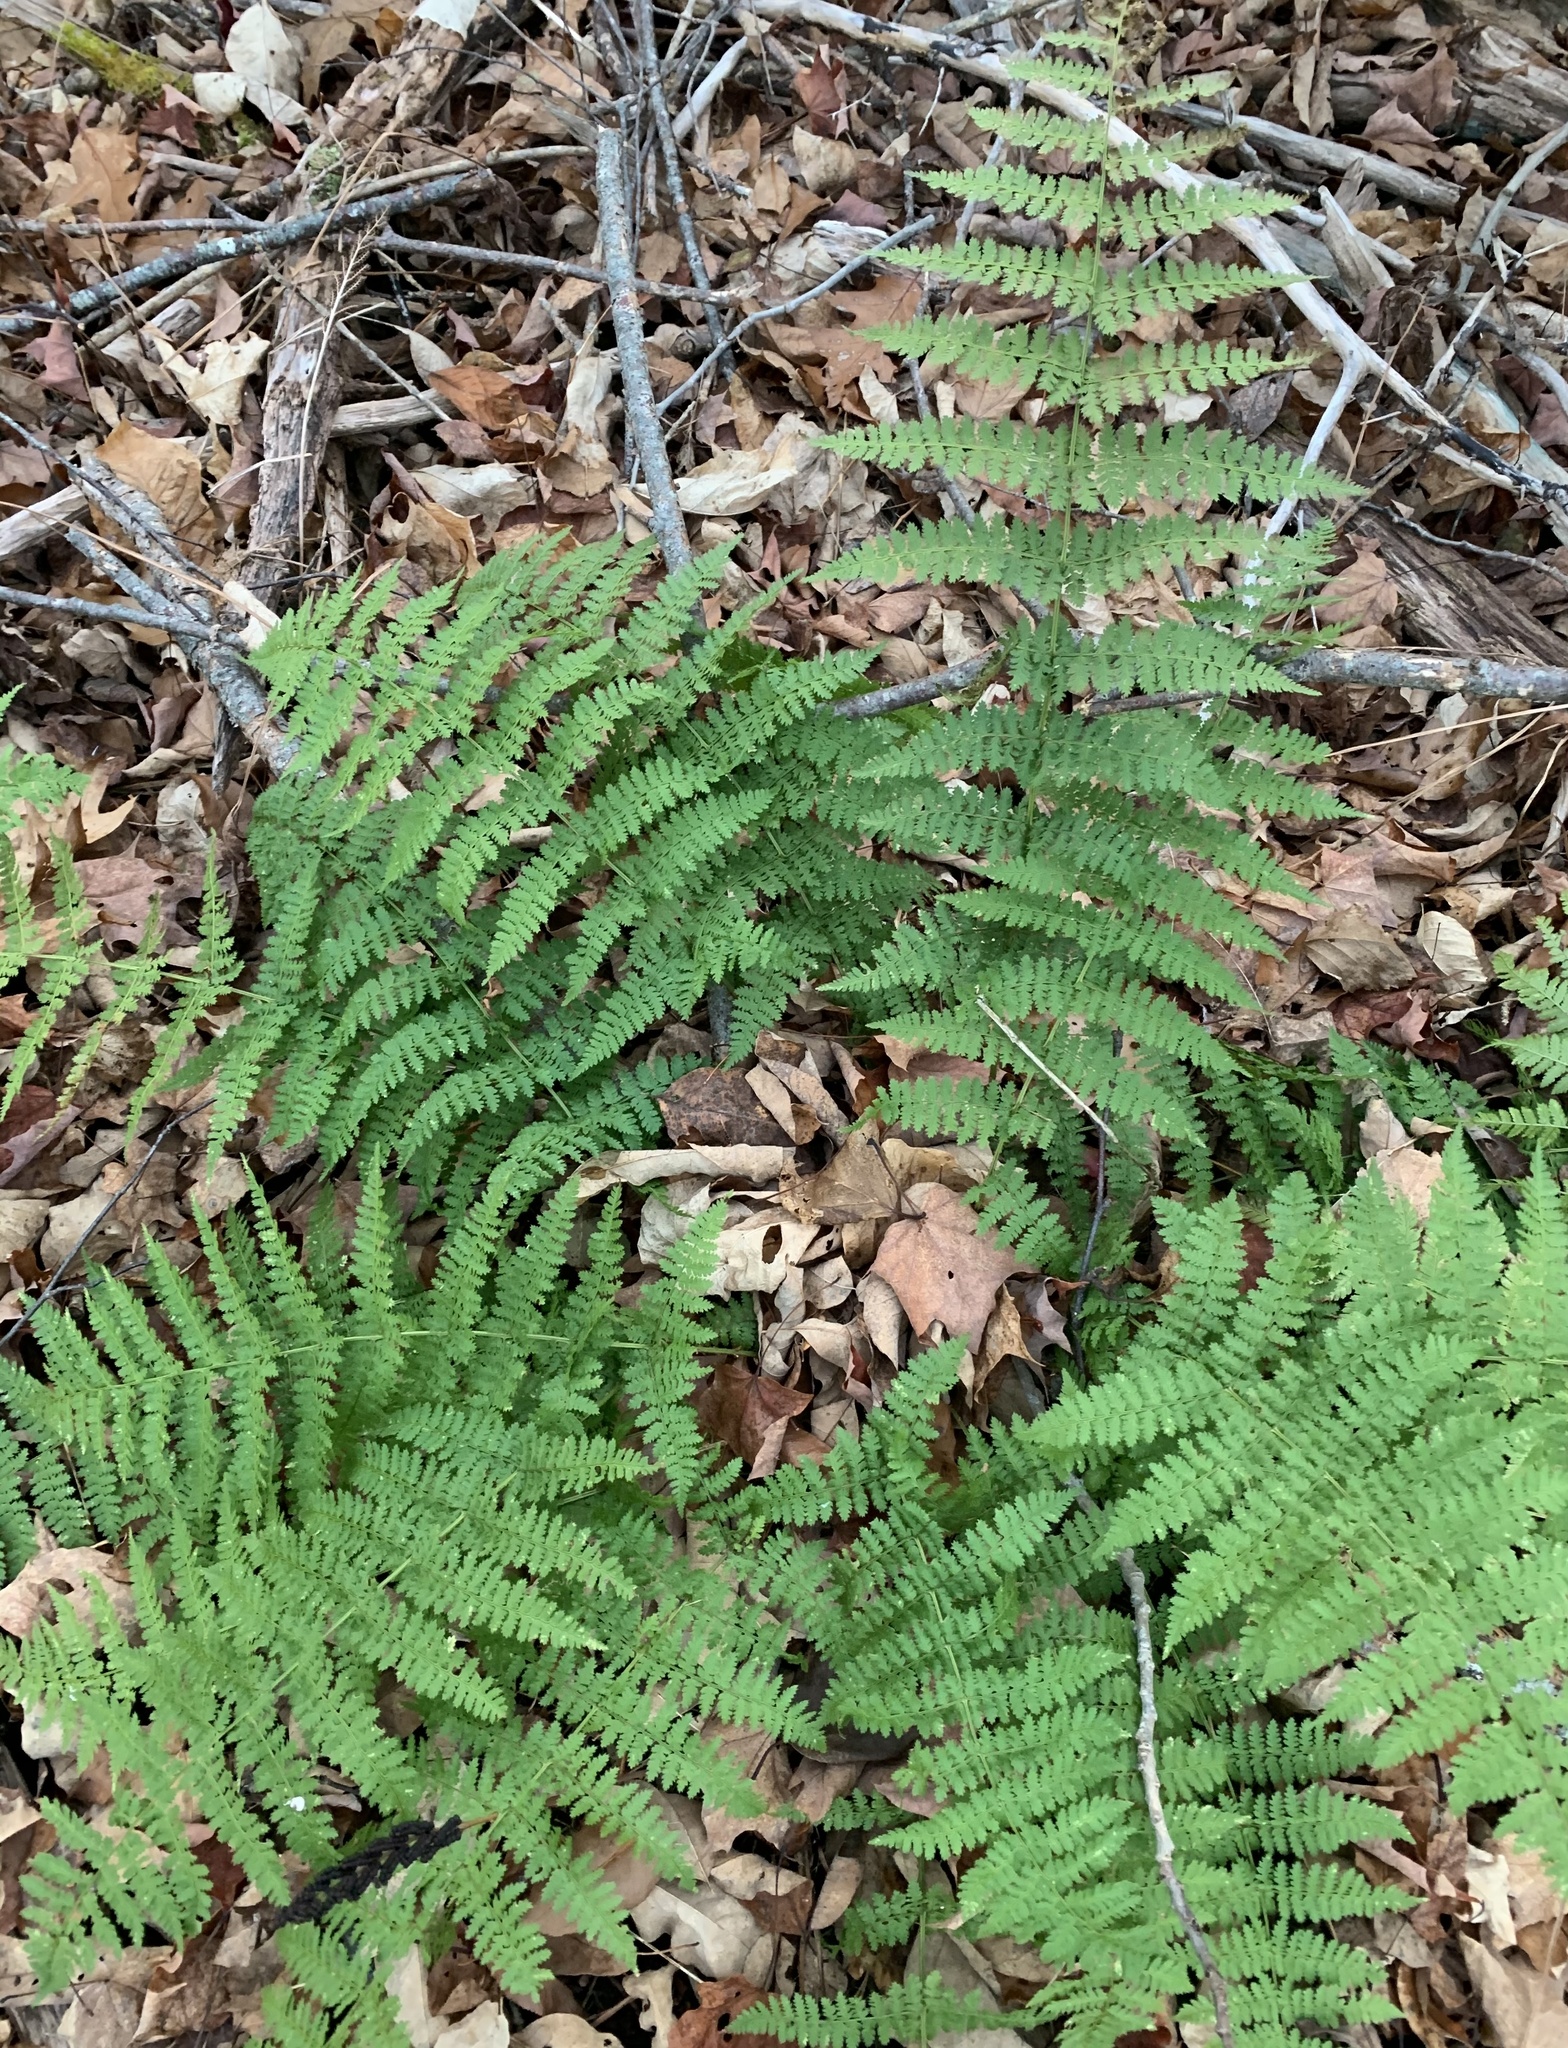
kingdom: Plantae
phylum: Tracheophyta
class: Polypodiopsida
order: Polypodiales
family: Dryopteridaceae
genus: Dryopteris
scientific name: Dryopteris intermedia
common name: Evergreen wood fern
